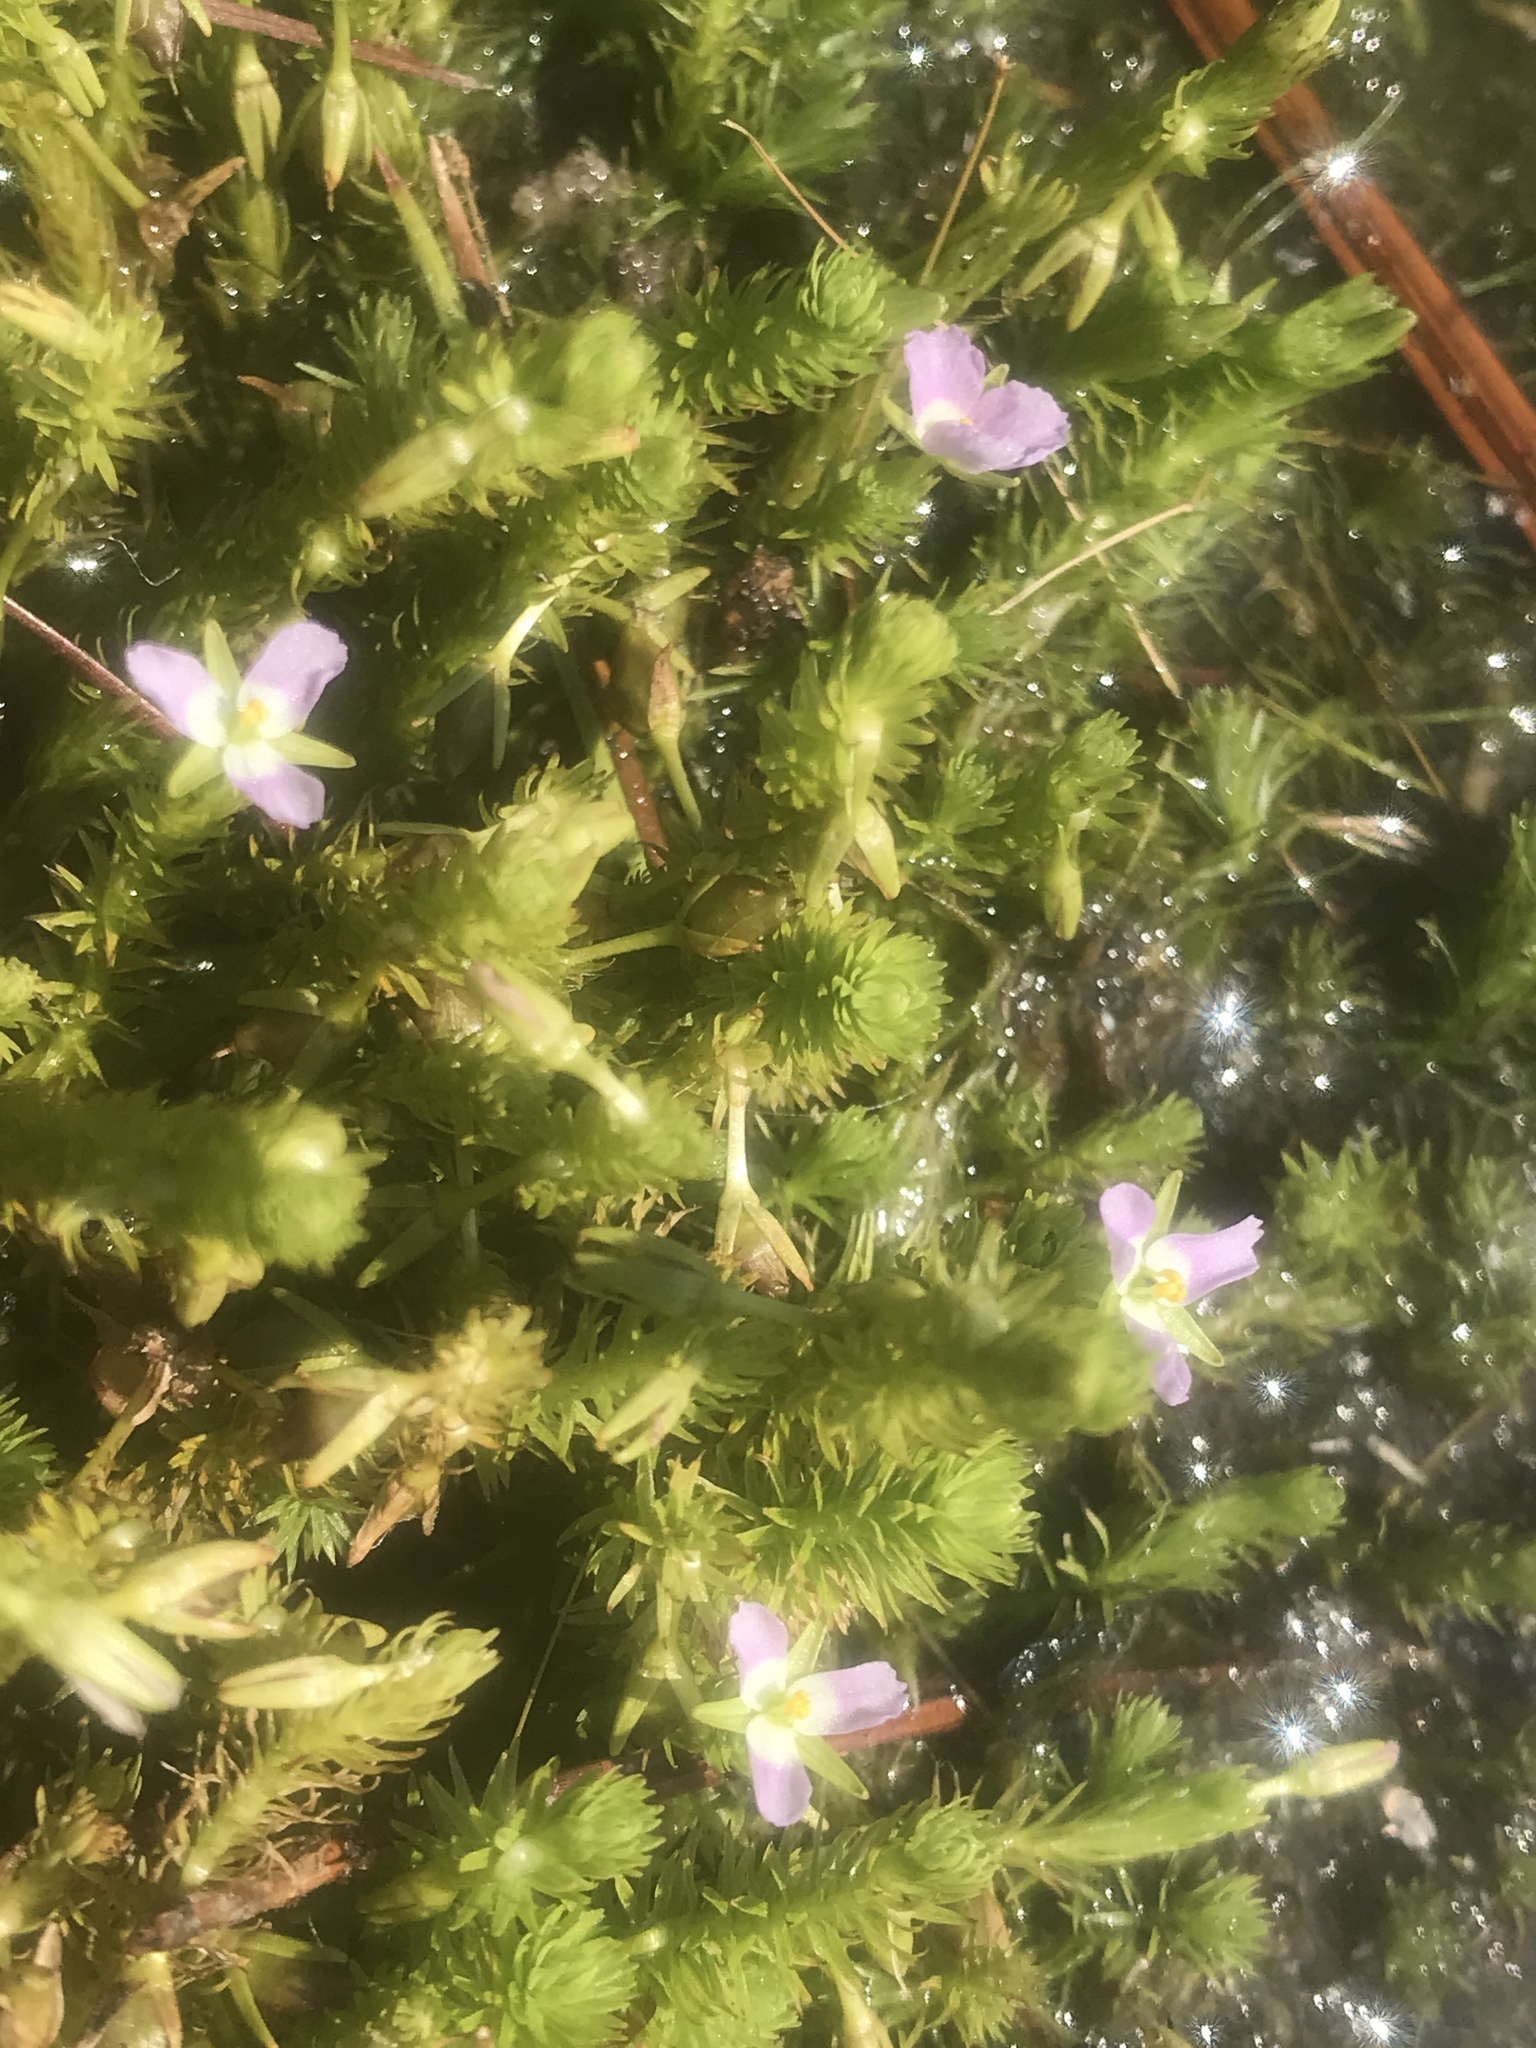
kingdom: Plantae
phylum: Tracheophyta
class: Liliopsida
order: Poales
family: Mayacaceae
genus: Mayaca
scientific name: Mayaca fluviatilis
